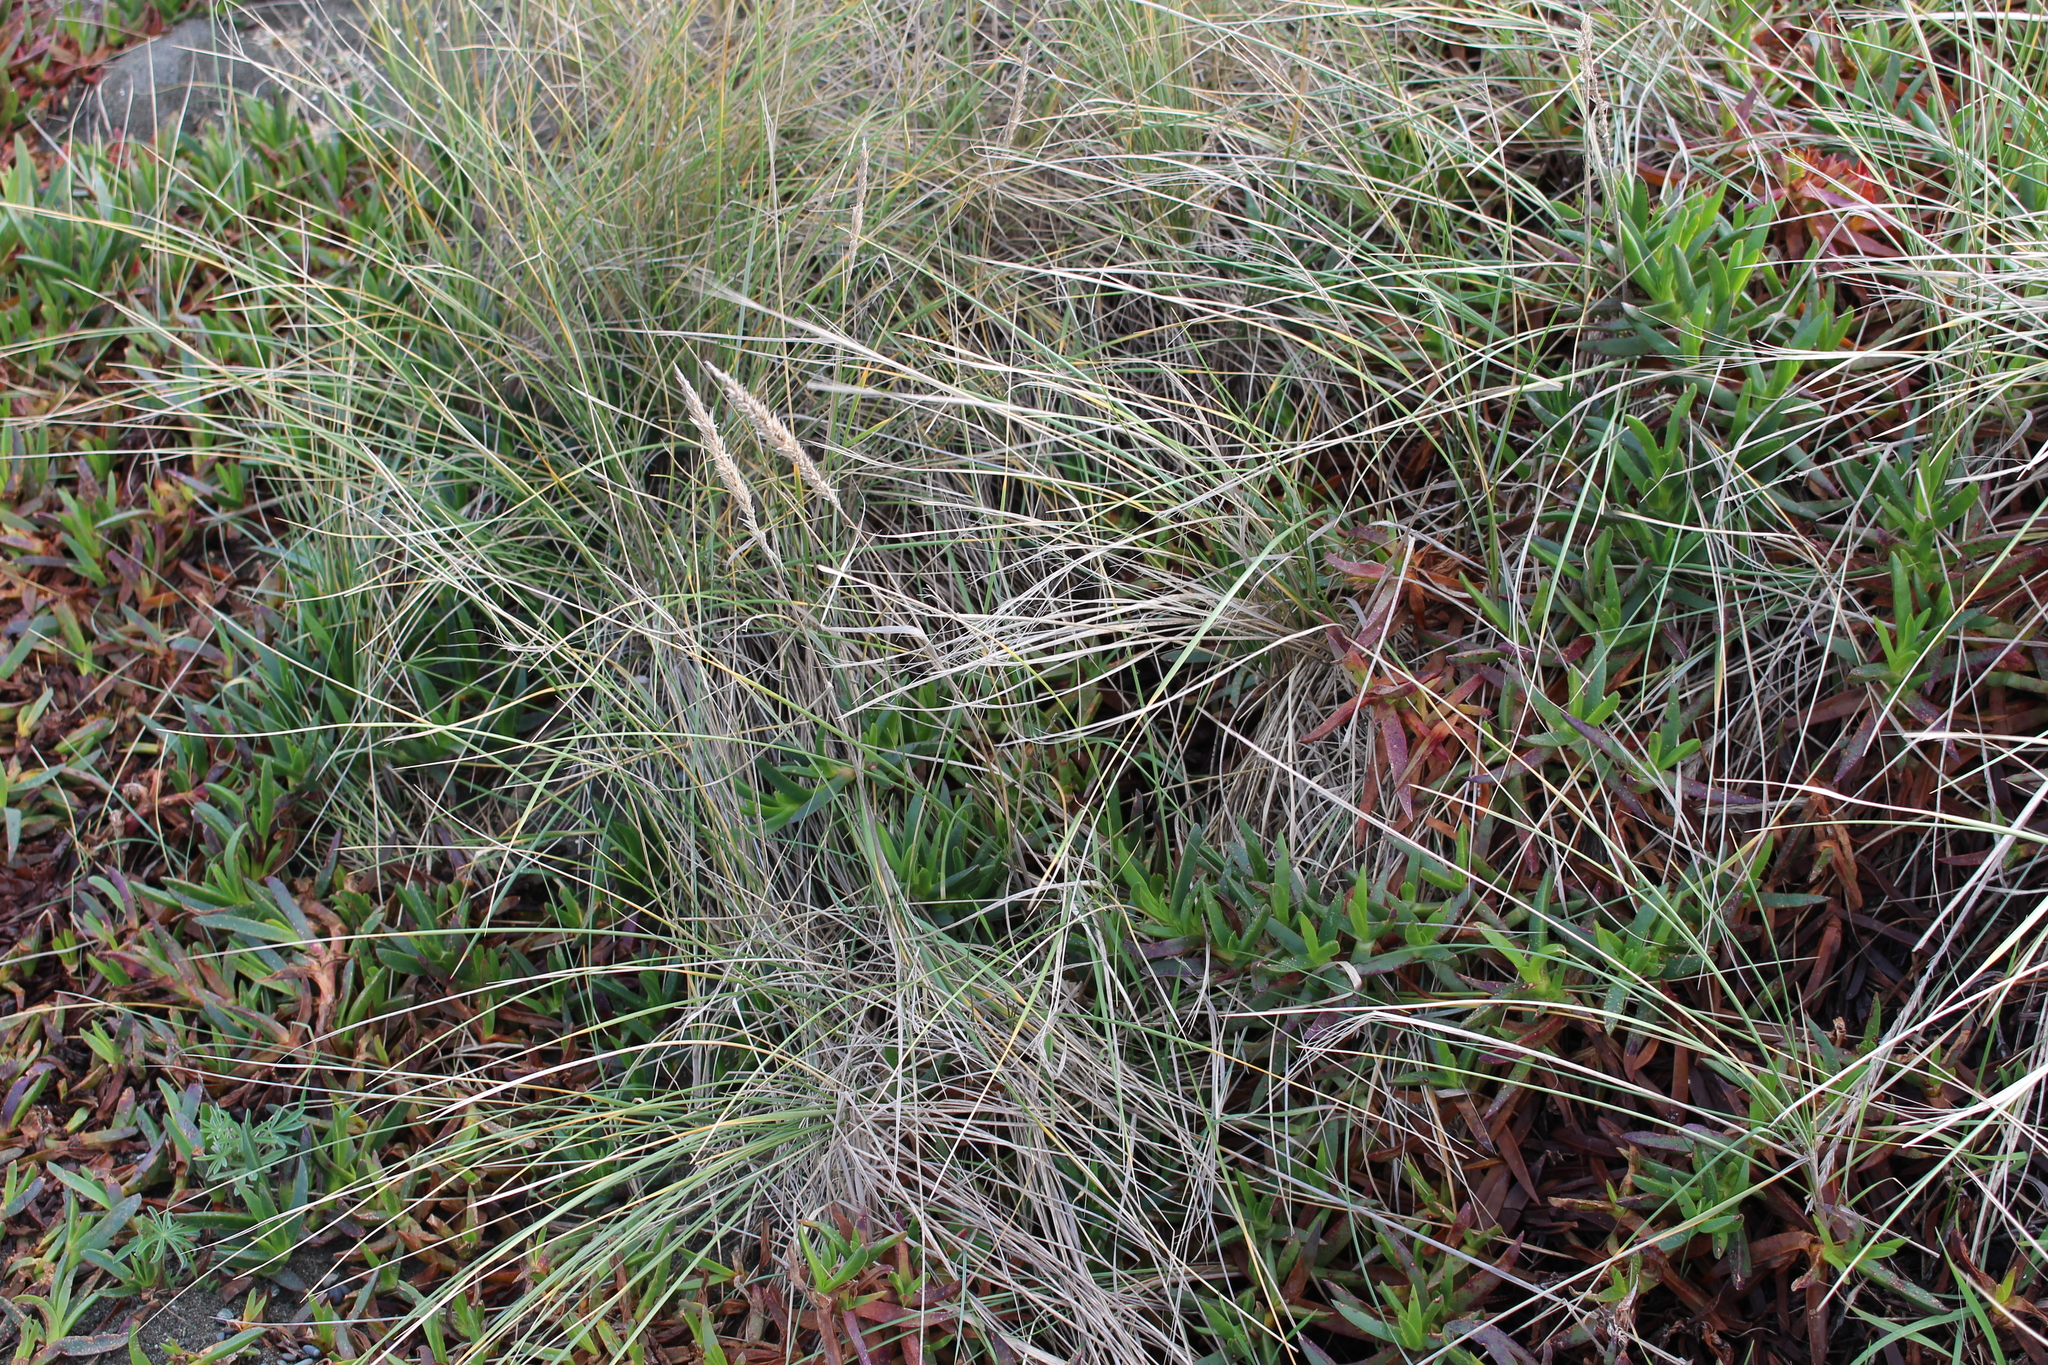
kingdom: Plantae
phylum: Tracheophyta
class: Liliopsida
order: Poales
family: Poaceae
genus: Calamagrostis
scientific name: Calamagrostis arenaria
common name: European beachgrass
